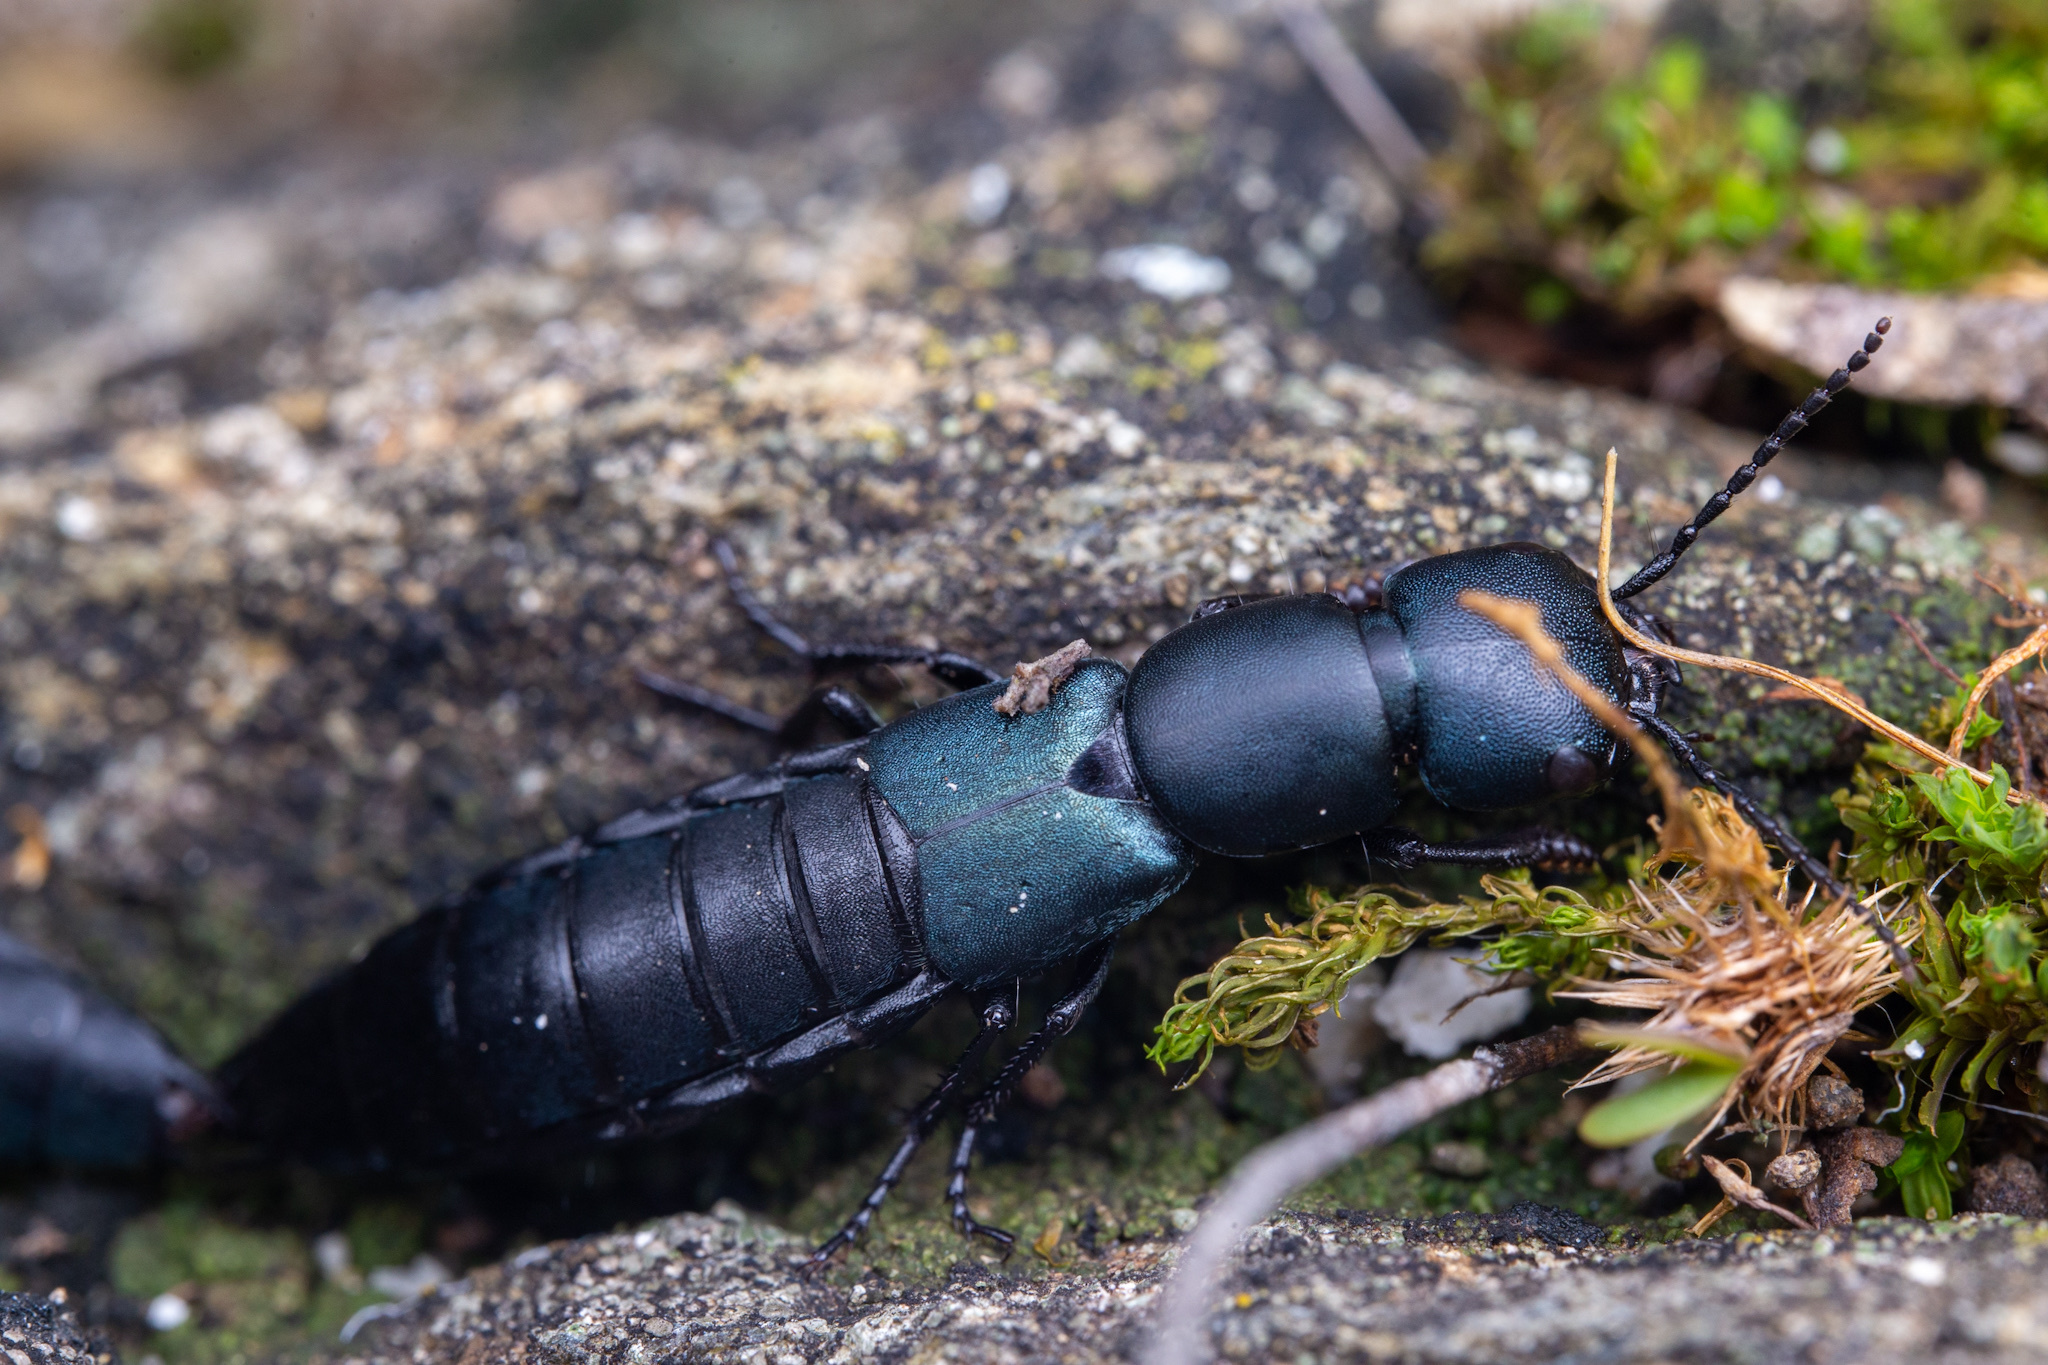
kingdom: Animalia
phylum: Arthropoda
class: Insecta
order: Coleoptera
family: Staphylinidae
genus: Ocypus
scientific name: Ocypus ophthalmicus
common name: Blue rove-beetle
